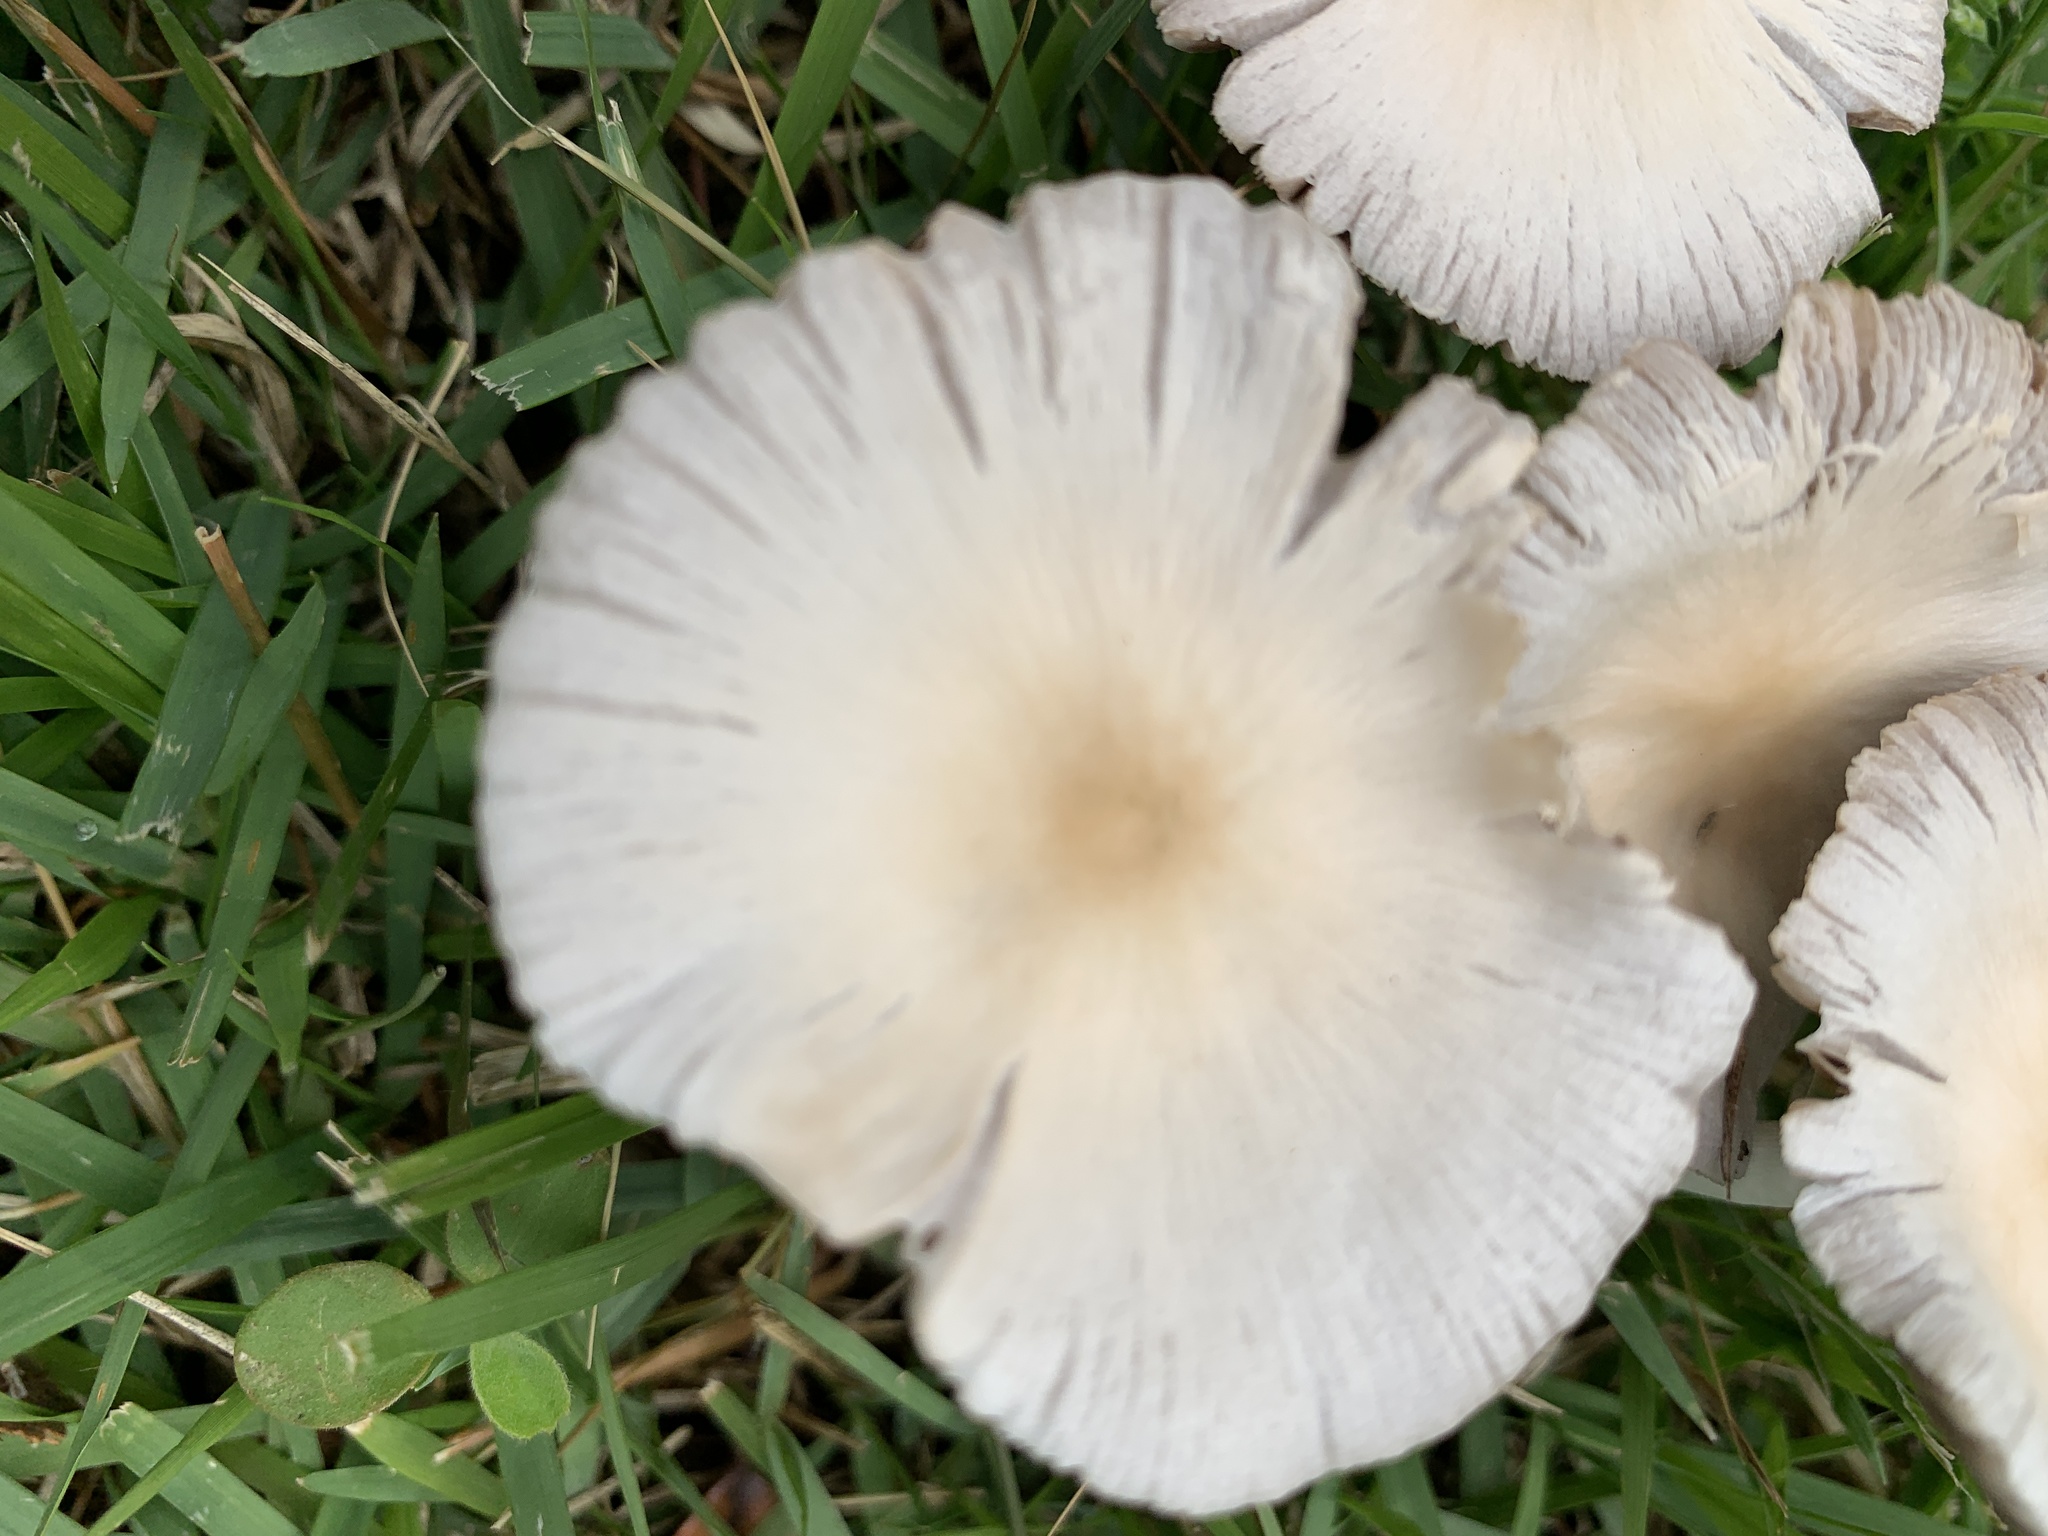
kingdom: Fungi
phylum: Basidiomycota
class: Agaricomycetes
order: Agaricales
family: Psathyrellaceae
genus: Candolleomyces
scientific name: Candolleomyces candolleanus
